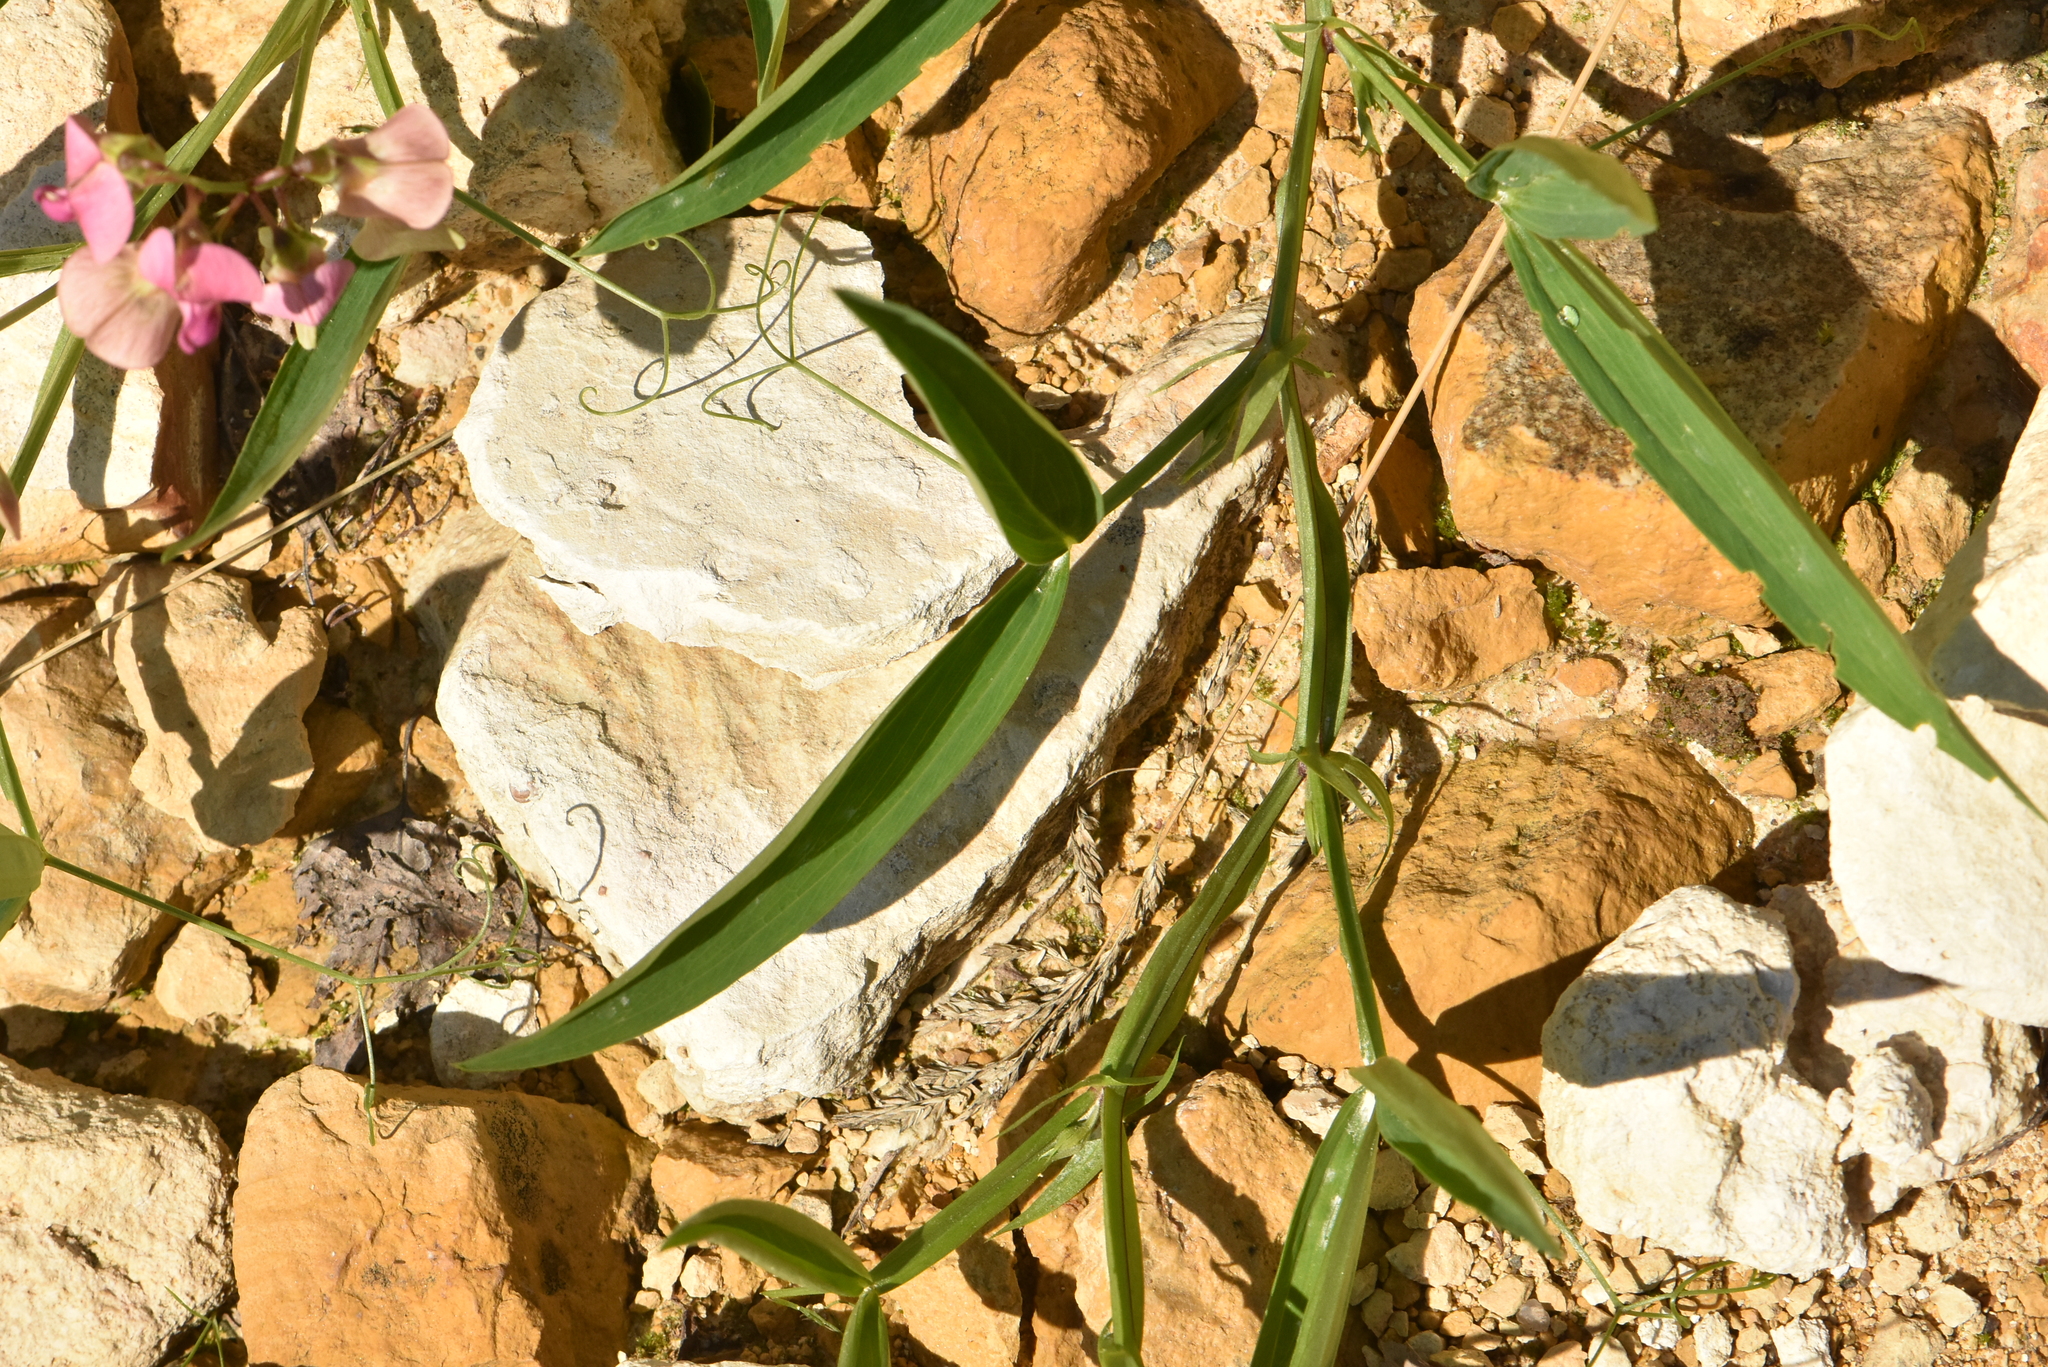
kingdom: Plantae
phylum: Tracheophyta
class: Magnoliopsida
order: Fabales
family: Fabaceae
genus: Lathyrus
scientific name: Lathyrus sylvestris
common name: Flat pea
